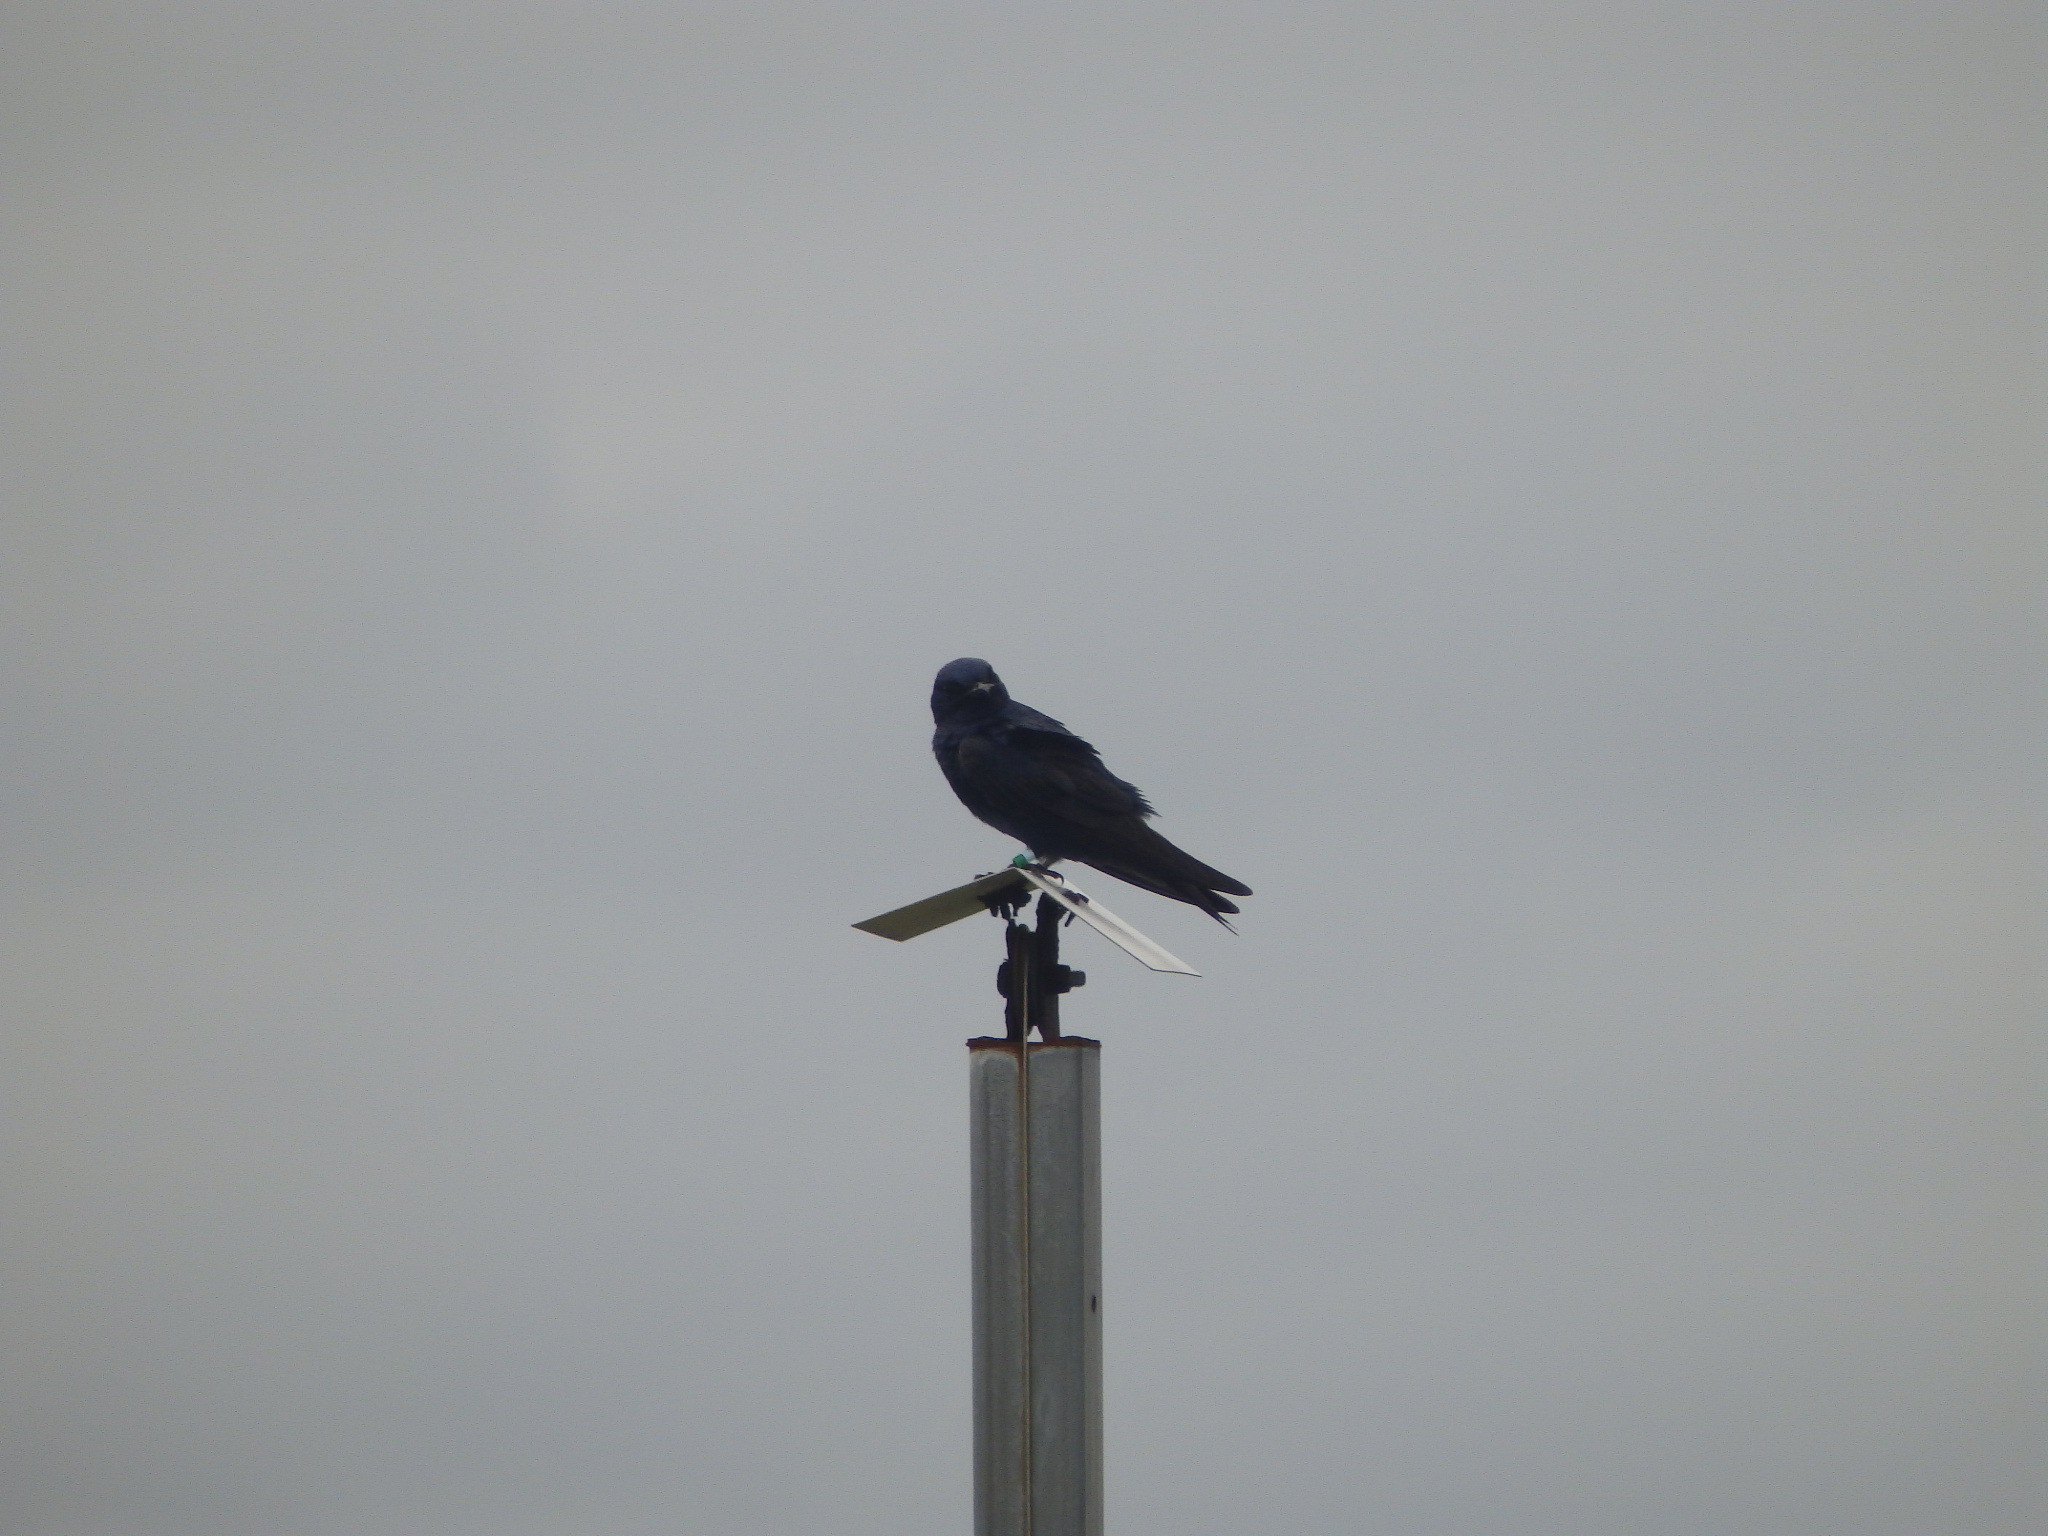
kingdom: Animalia
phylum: Chordata
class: Aves
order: Passeriformes
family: Hirundinidae
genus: Progne
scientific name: Progne subis
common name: Purple martin
